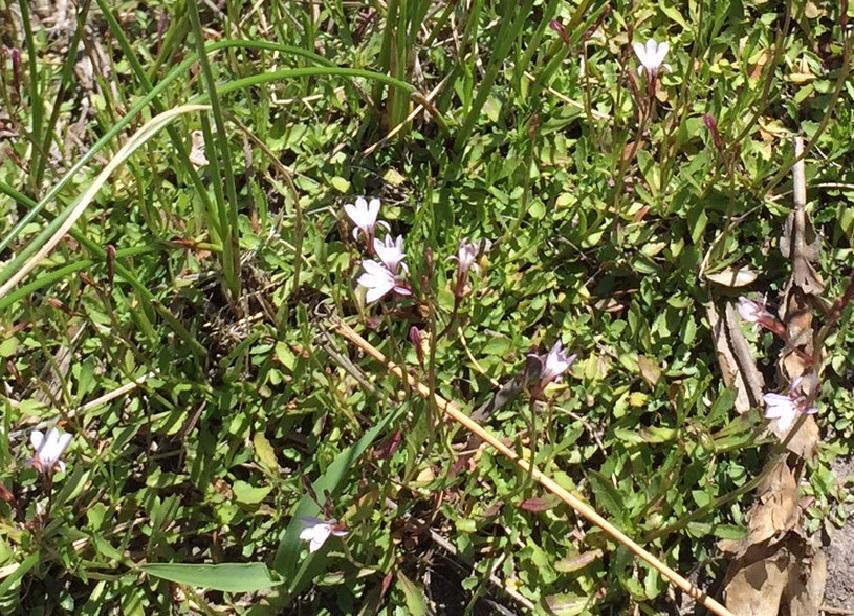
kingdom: Plantae
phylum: Tracheophyta
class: Magnoliopsida
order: Asterales
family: Campanulaceae
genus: Lobelia
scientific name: Lobelia anceps
